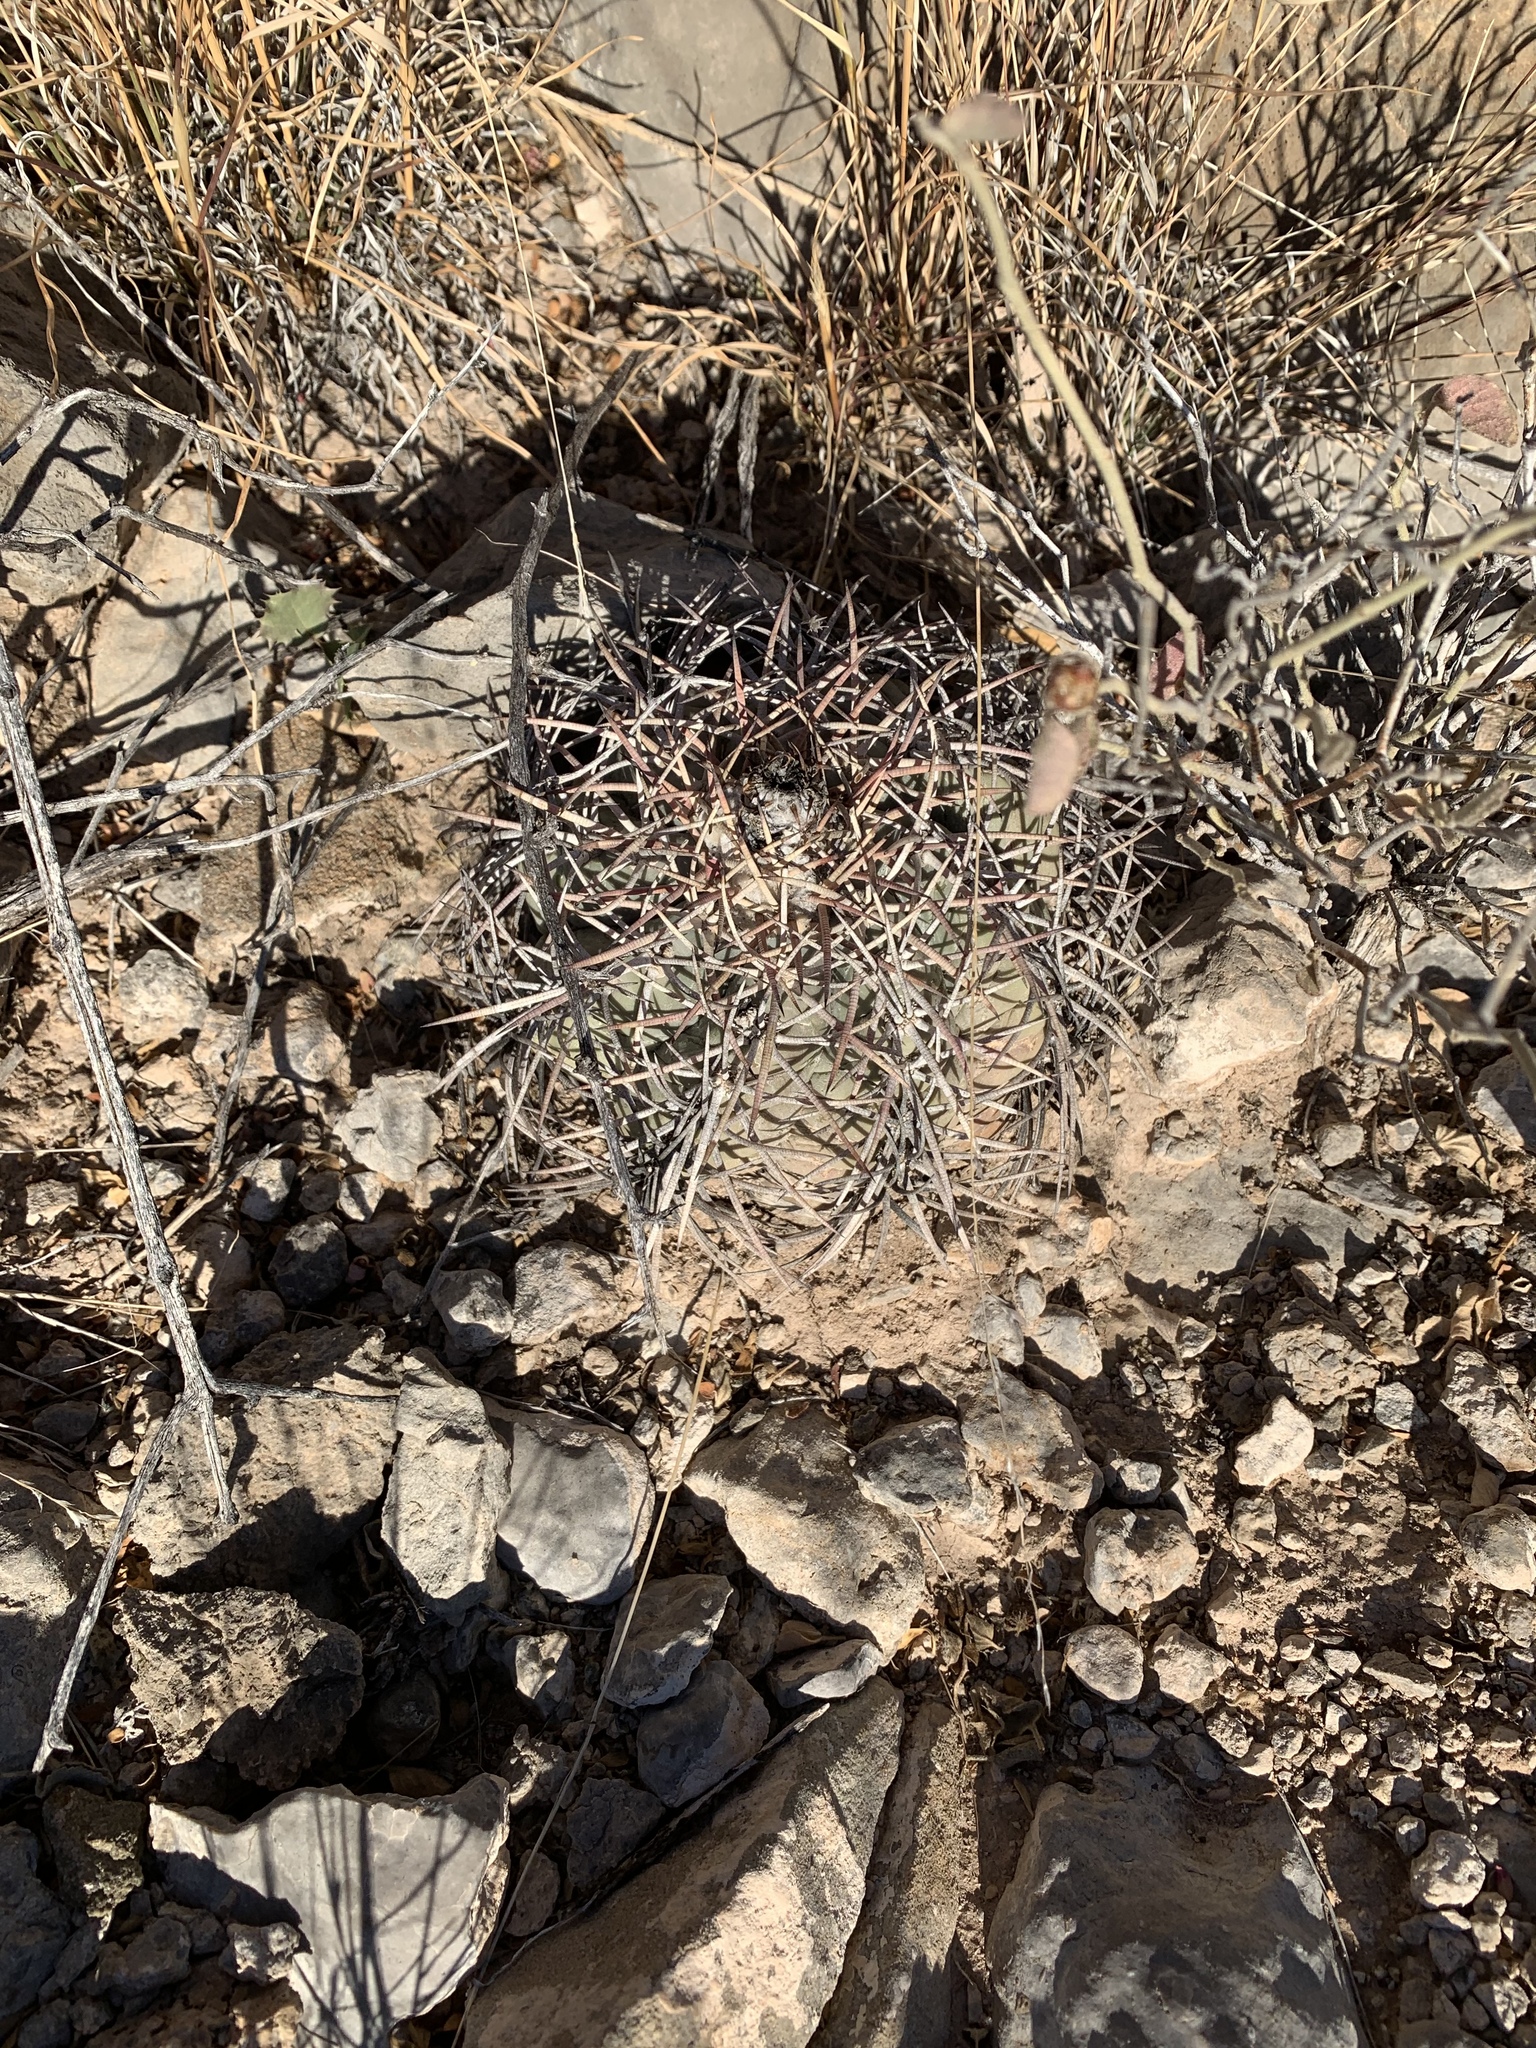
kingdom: Plantae
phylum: Tracheophyta
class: Magnoliopsida
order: Caryophyllales
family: Cactaceae
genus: Echinocactus
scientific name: Echinocactus horizonthalonius
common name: Devilshead
